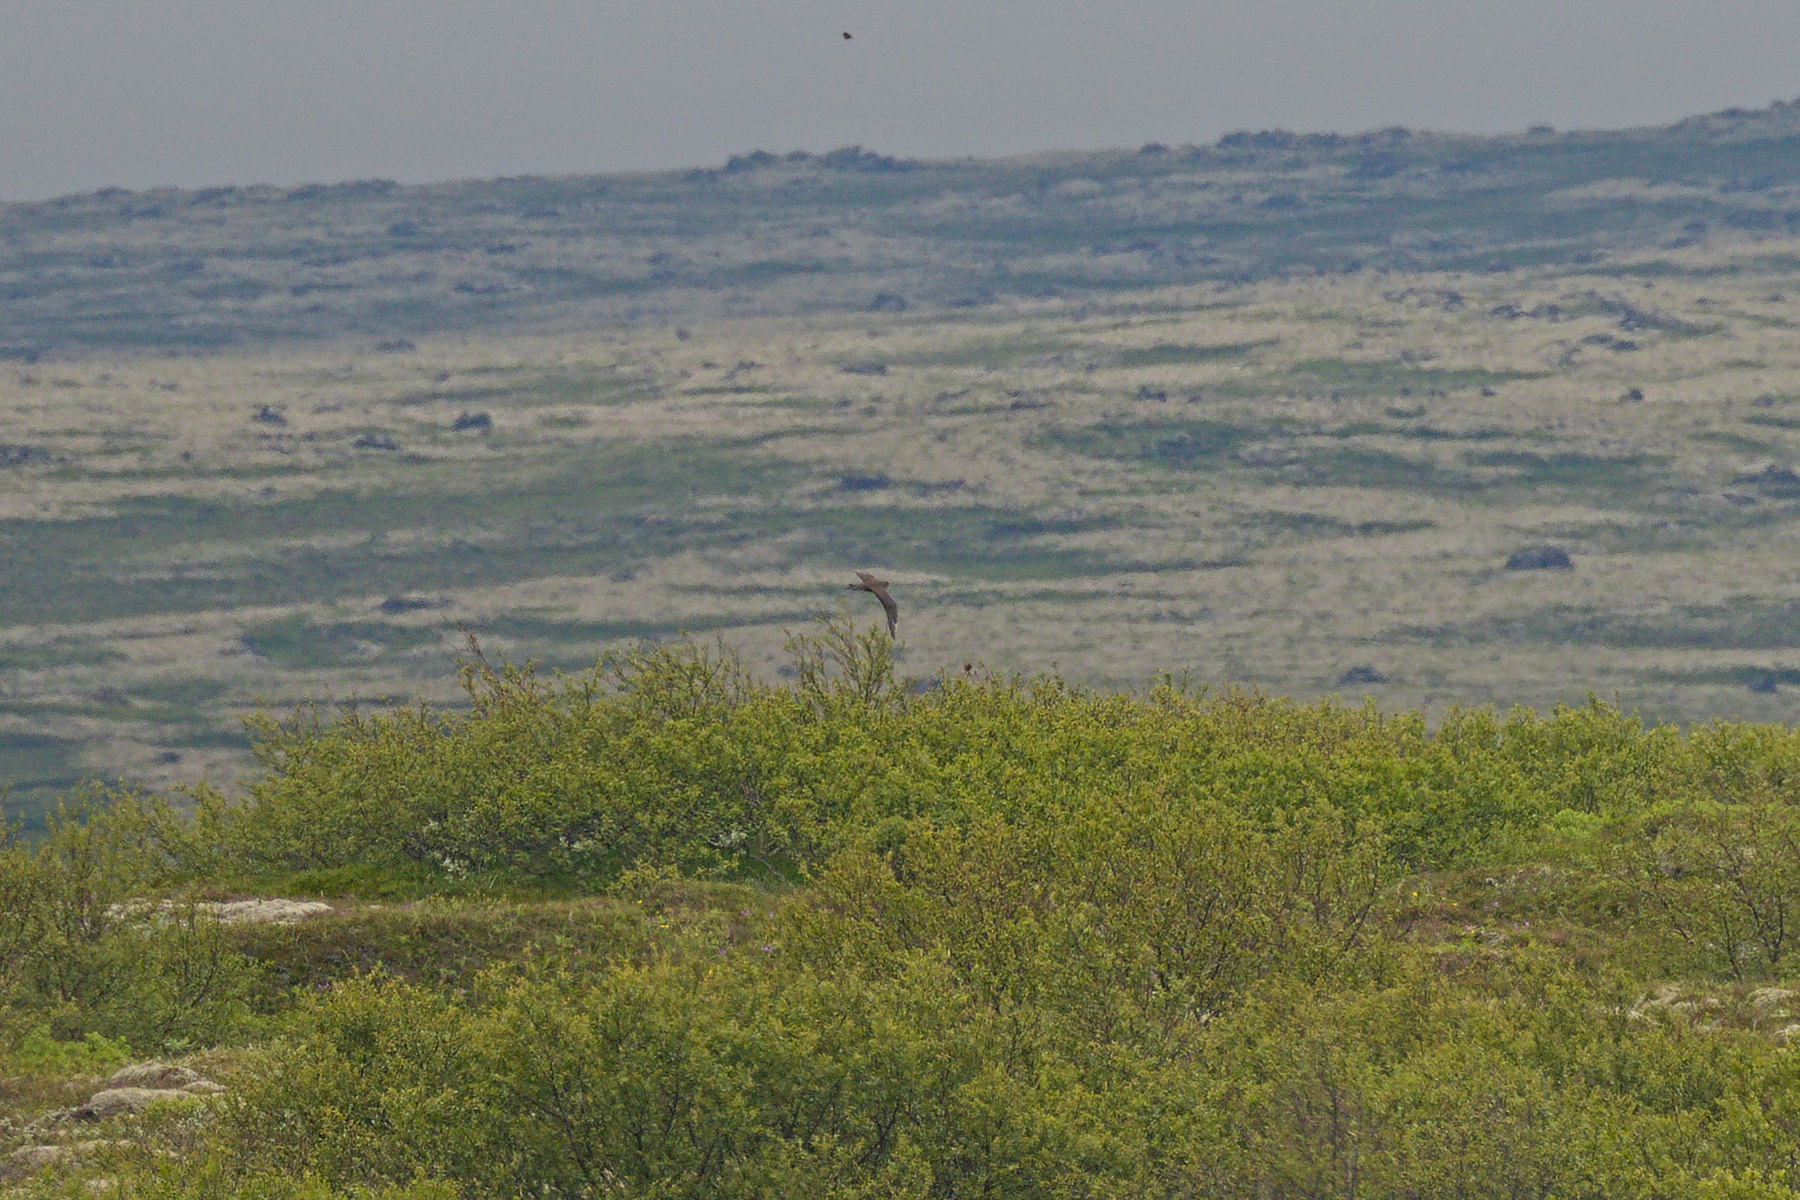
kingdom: Animalia
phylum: Chordata
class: Aves
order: Charadriiformes
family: Stercorariidae
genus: Stercorarius
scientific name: Stercorarius parasiticus
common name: Parasitic jaeger
